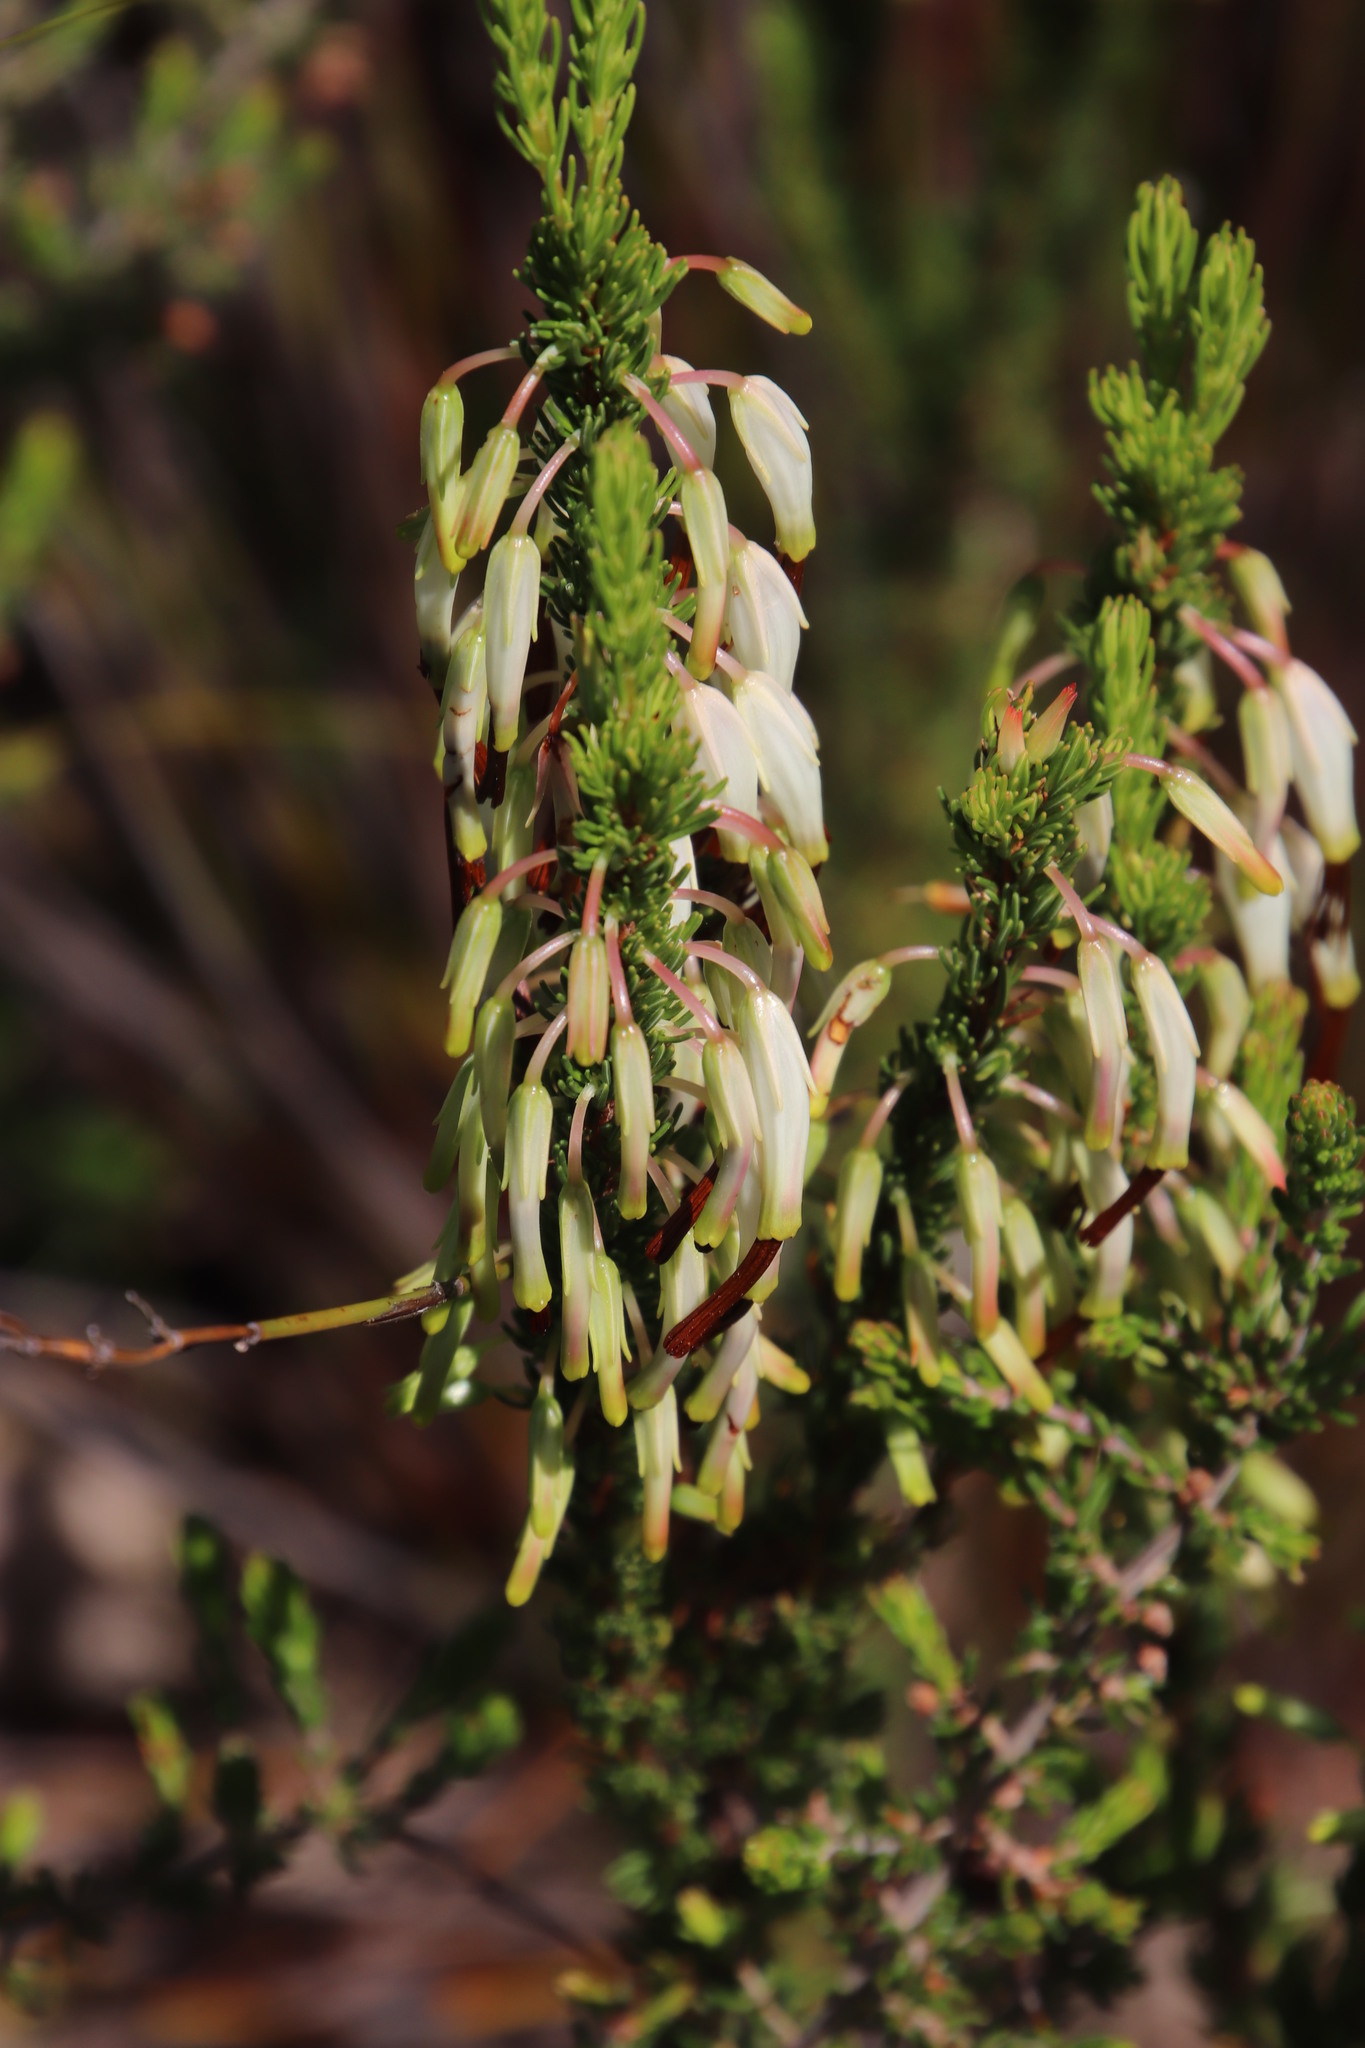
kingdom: Plantae
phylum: Tracheophyta
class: Magnoliopsida
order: Ericales
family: Ericaceae
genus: Erica
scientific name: Erica plukenetii
